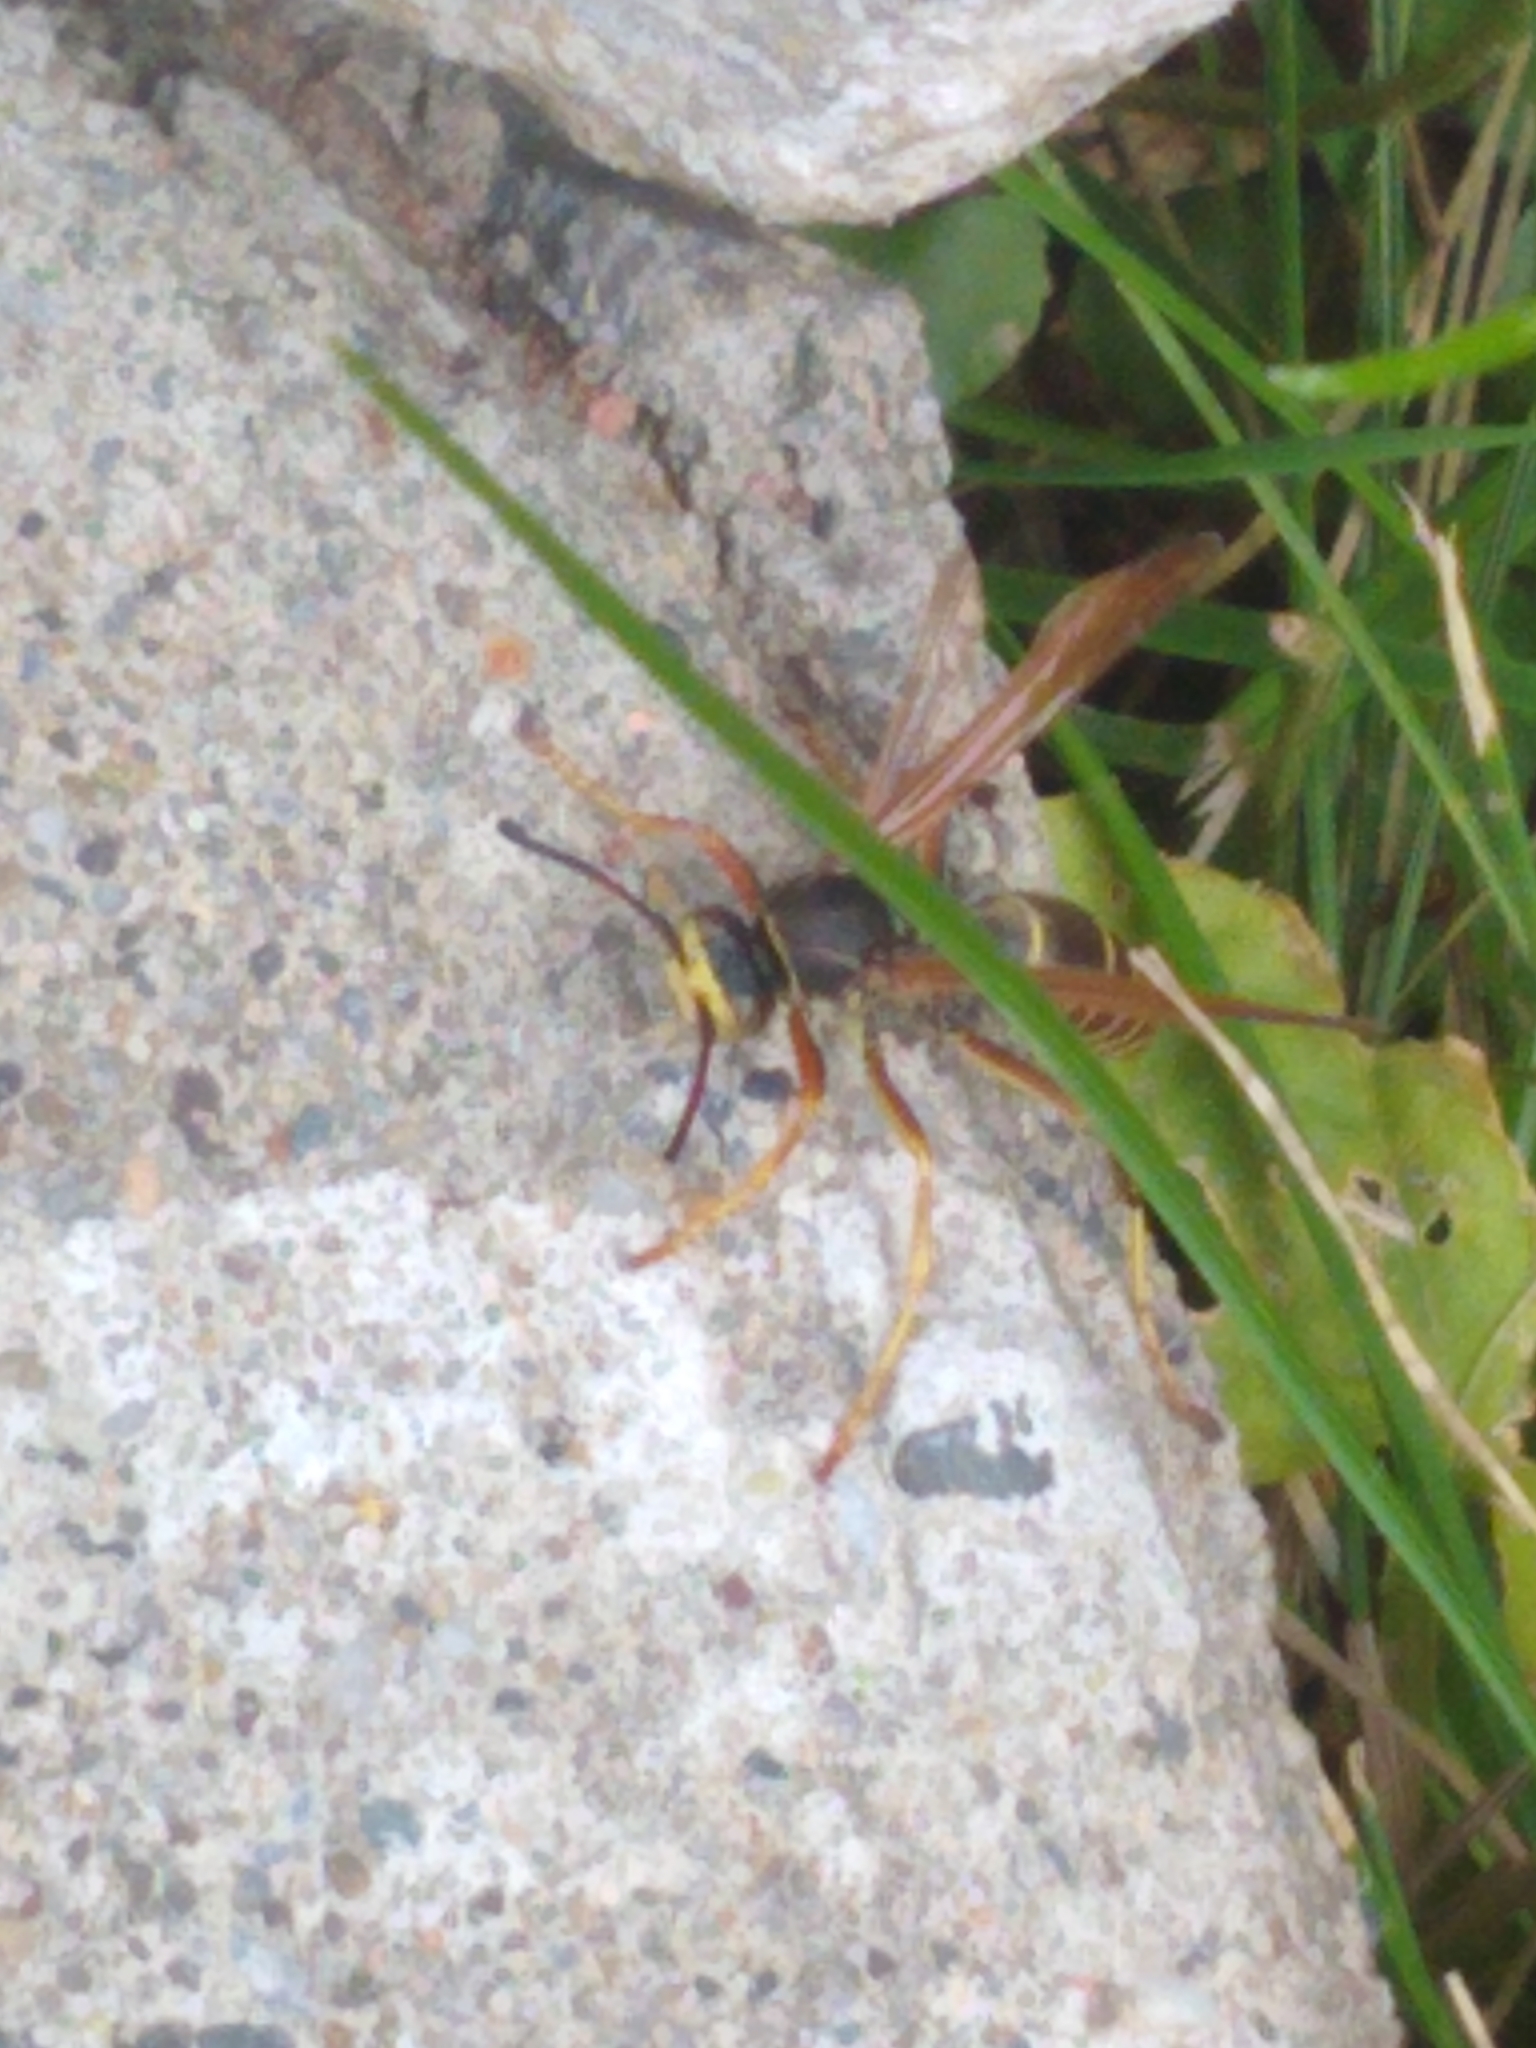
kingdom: Animalia
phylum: Arthropoda
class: Insecta
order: Hymenoptera
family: Eumenidae
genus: Polistes
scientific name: Polistes fuscatus
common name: Dark paper wasp
